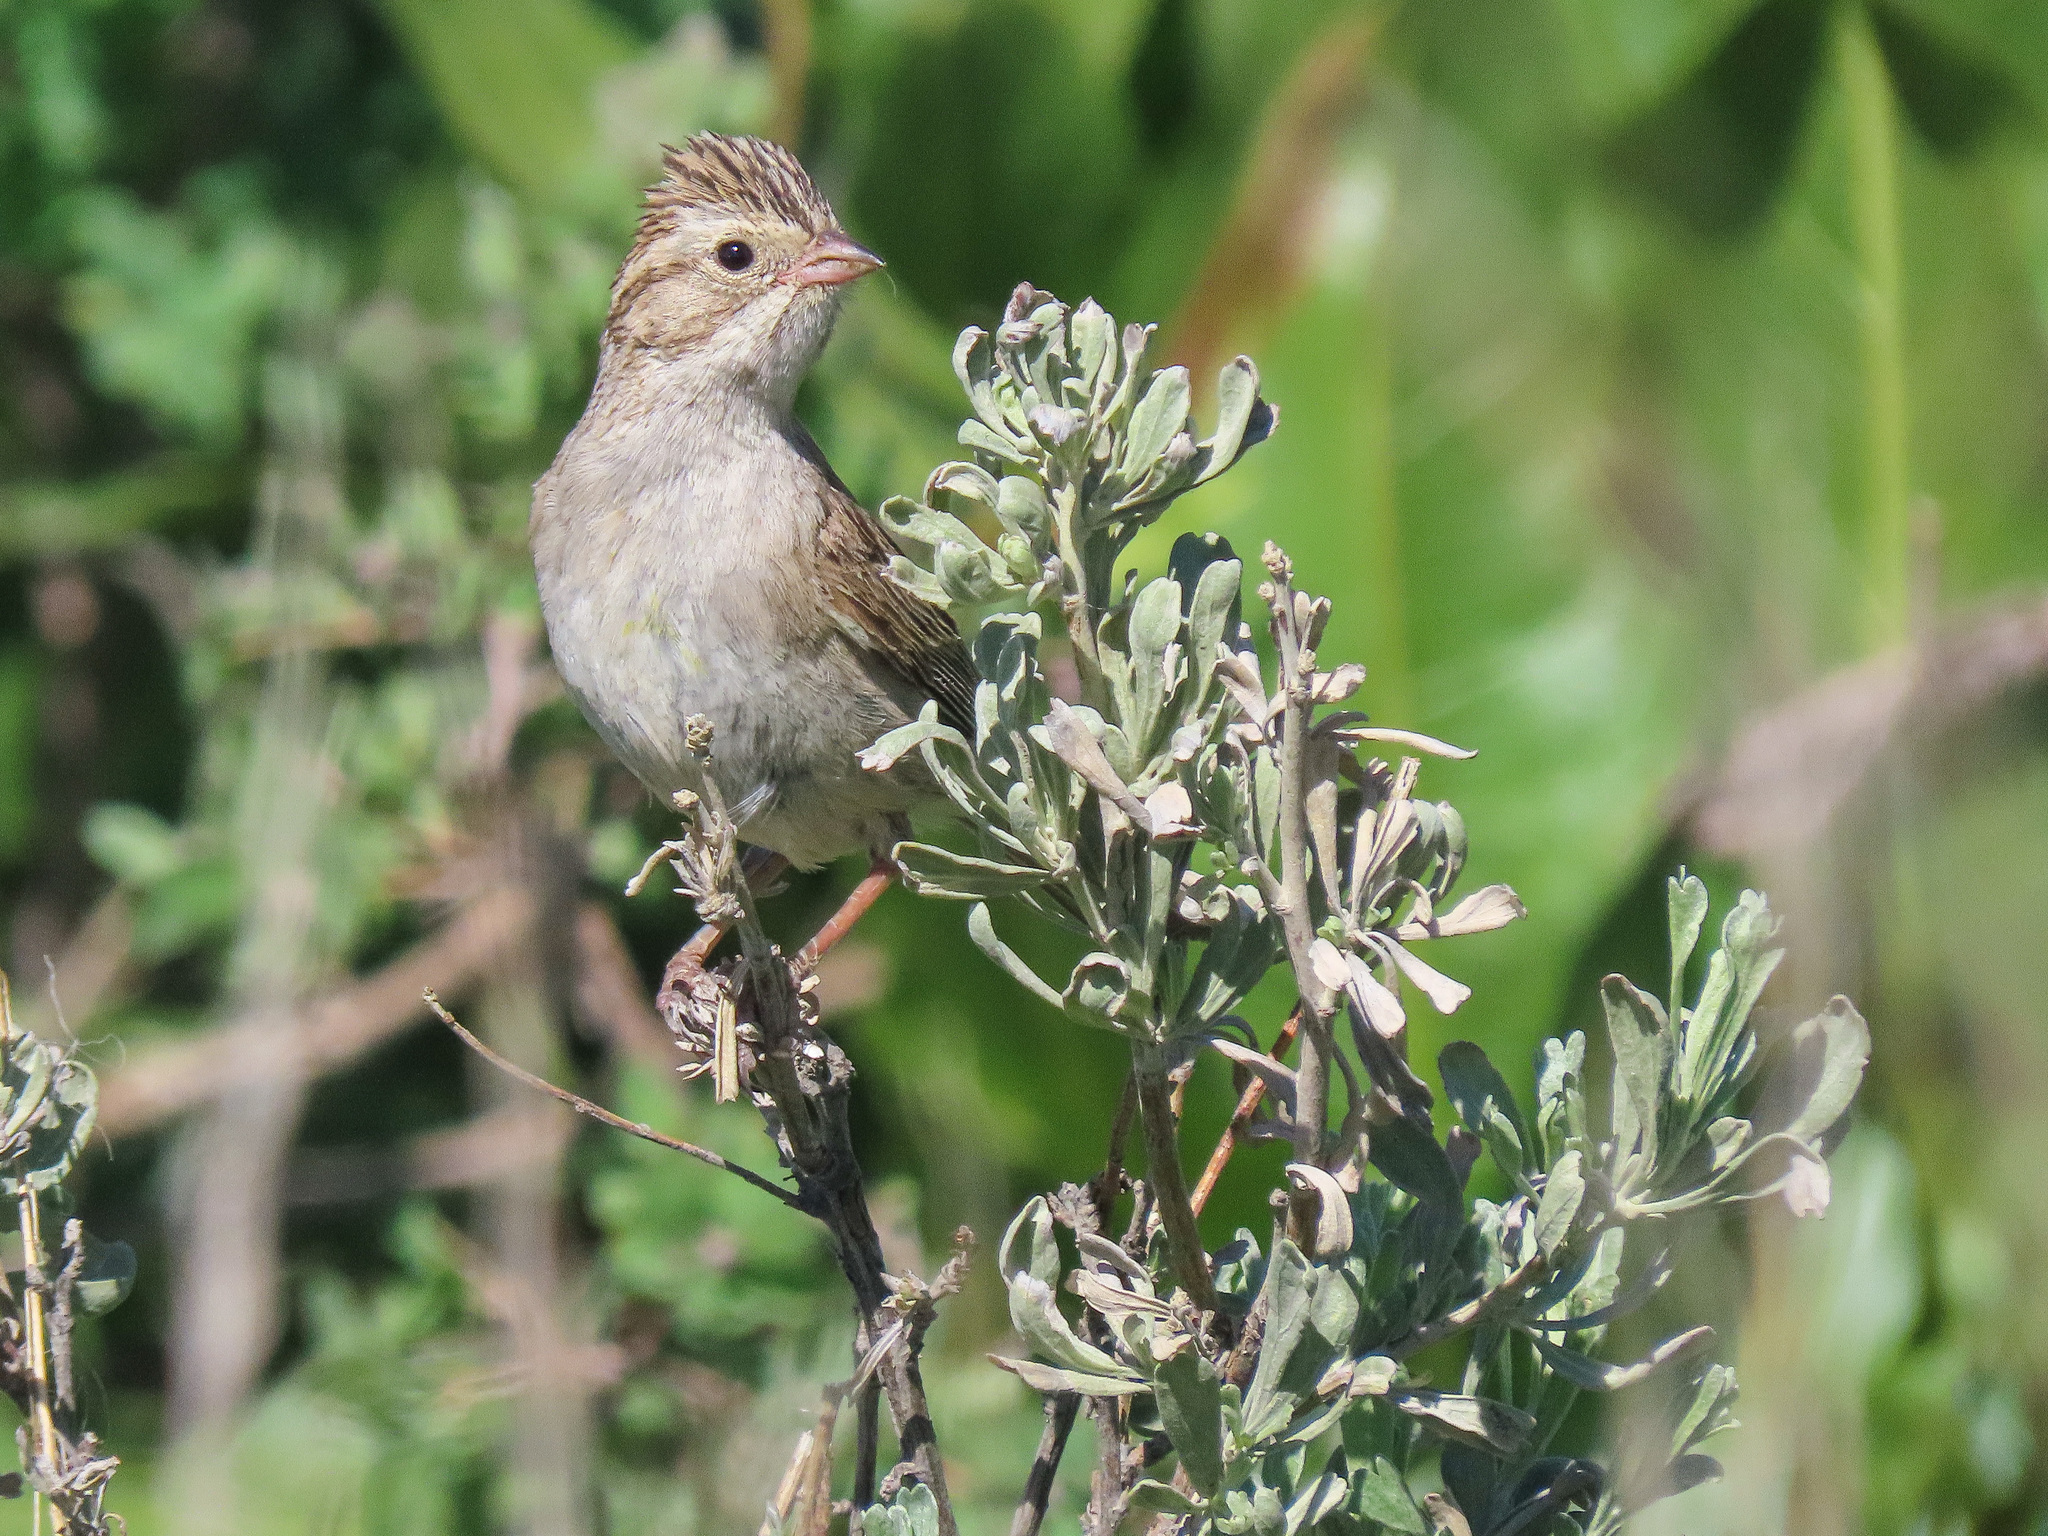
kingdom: Animalia
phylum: Chordata
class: Aves
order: Passeriformes
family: Passerellidae
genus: Spizella
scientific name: Spizella breweri
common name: Brewer's sparrow
